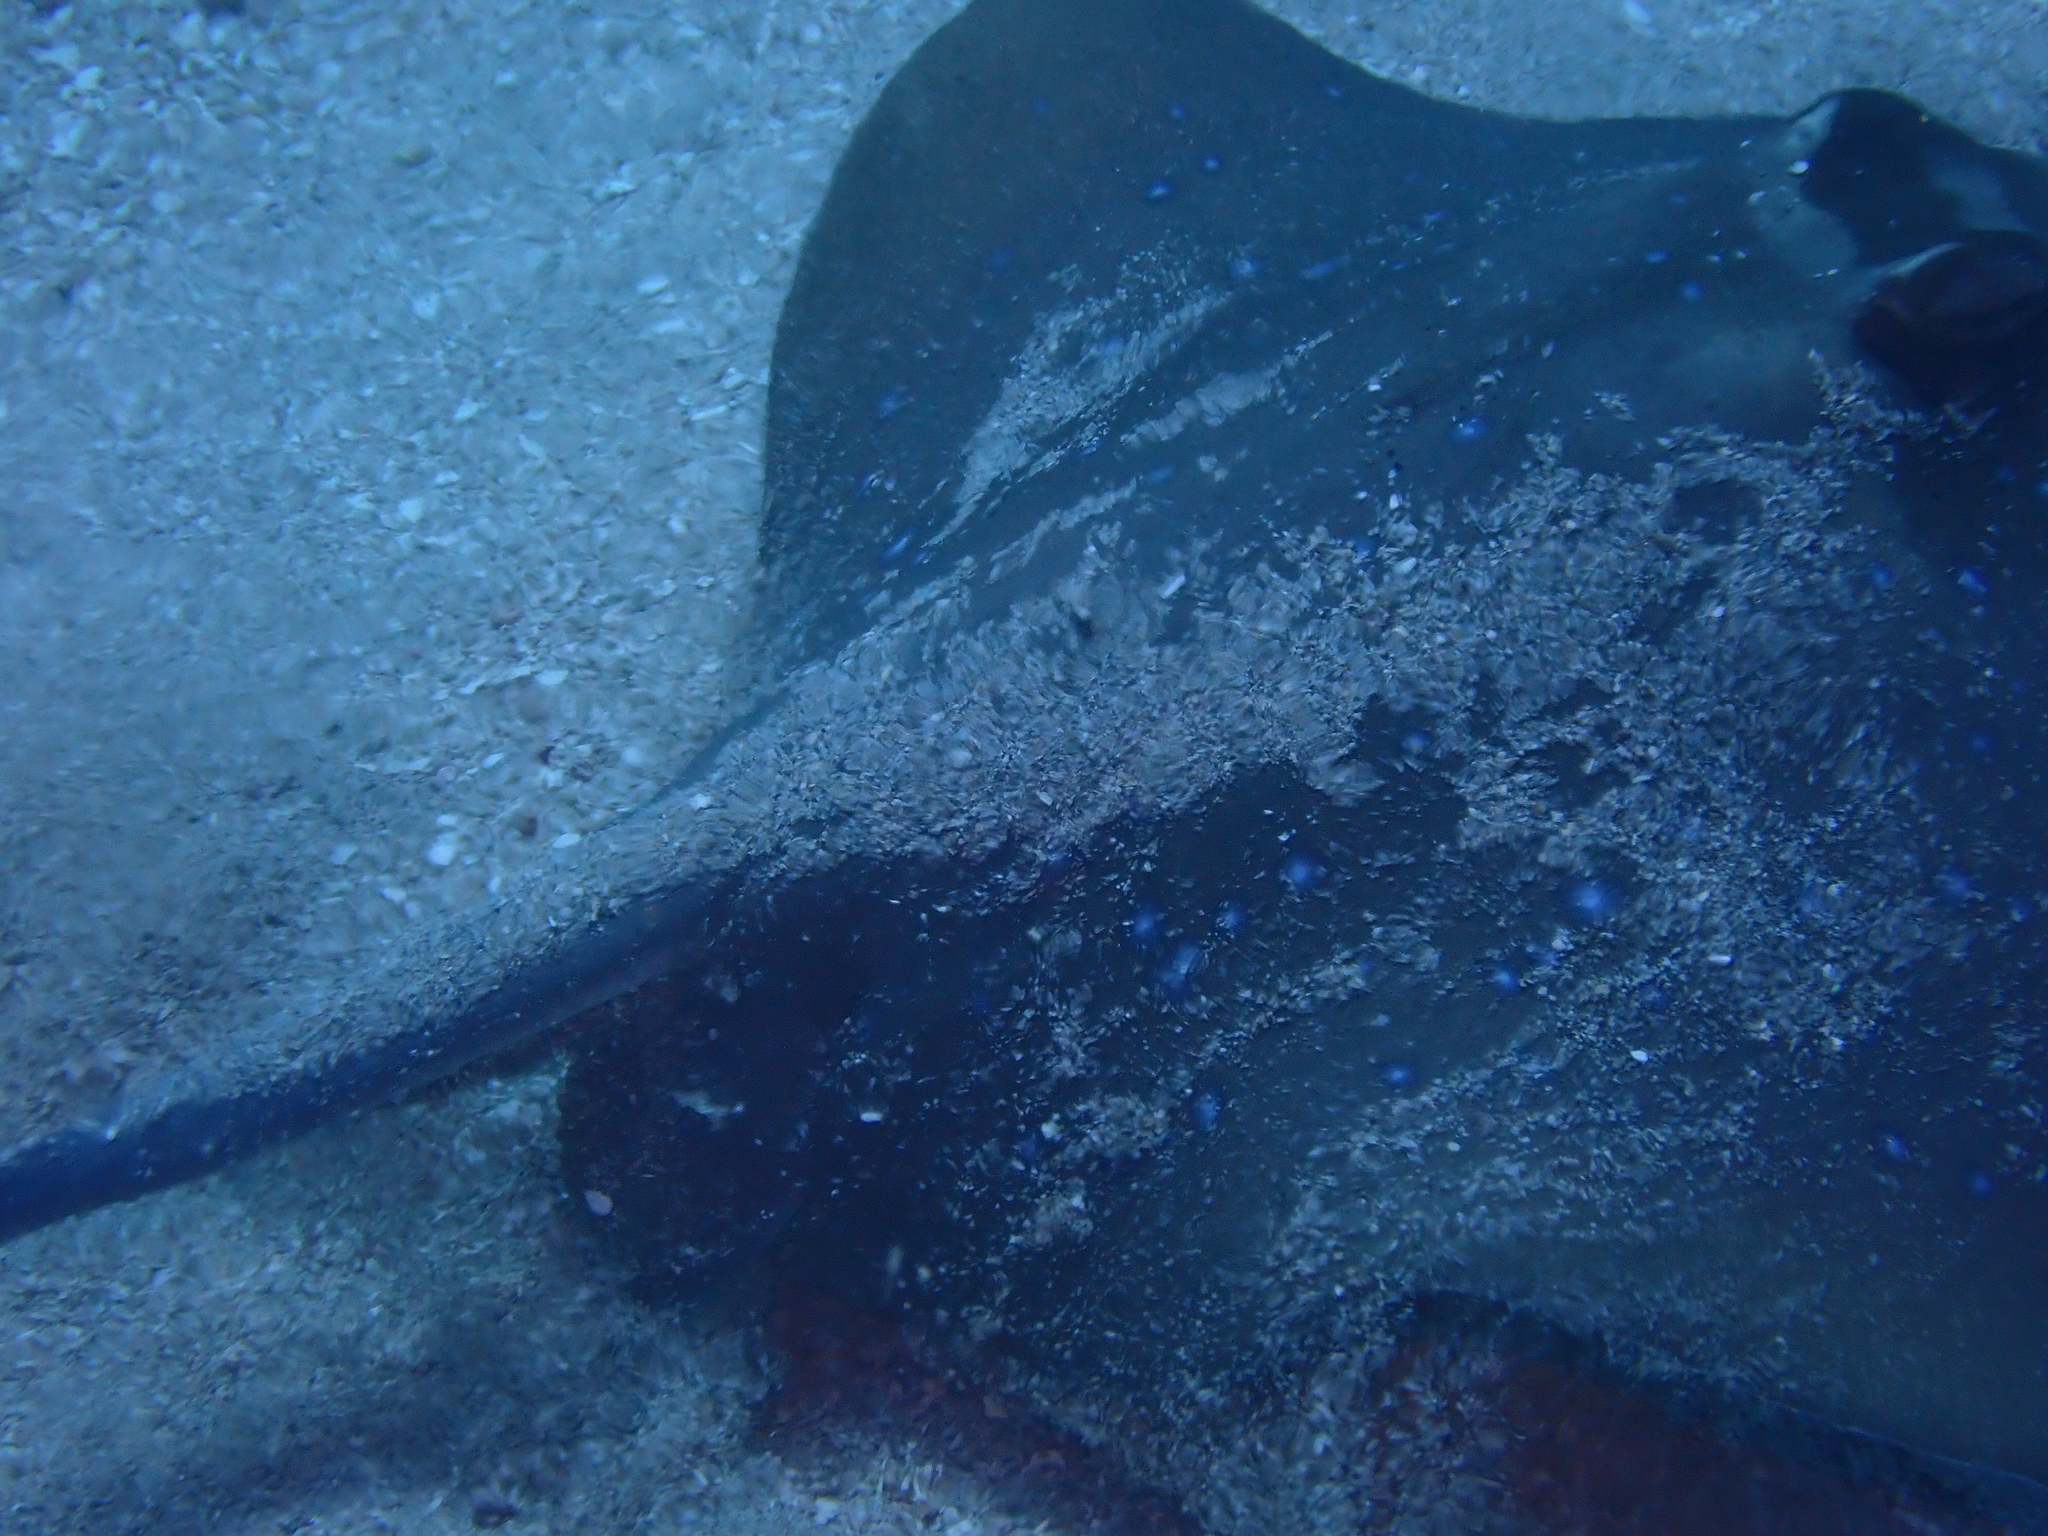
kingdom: Animalia
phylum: Chordata
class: Elasmobranchii
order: Myliobatiformes
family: Dasyatidae
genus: Neotrygon
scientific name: Neotrygon orientale
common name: Oriental bluespotted maskray
